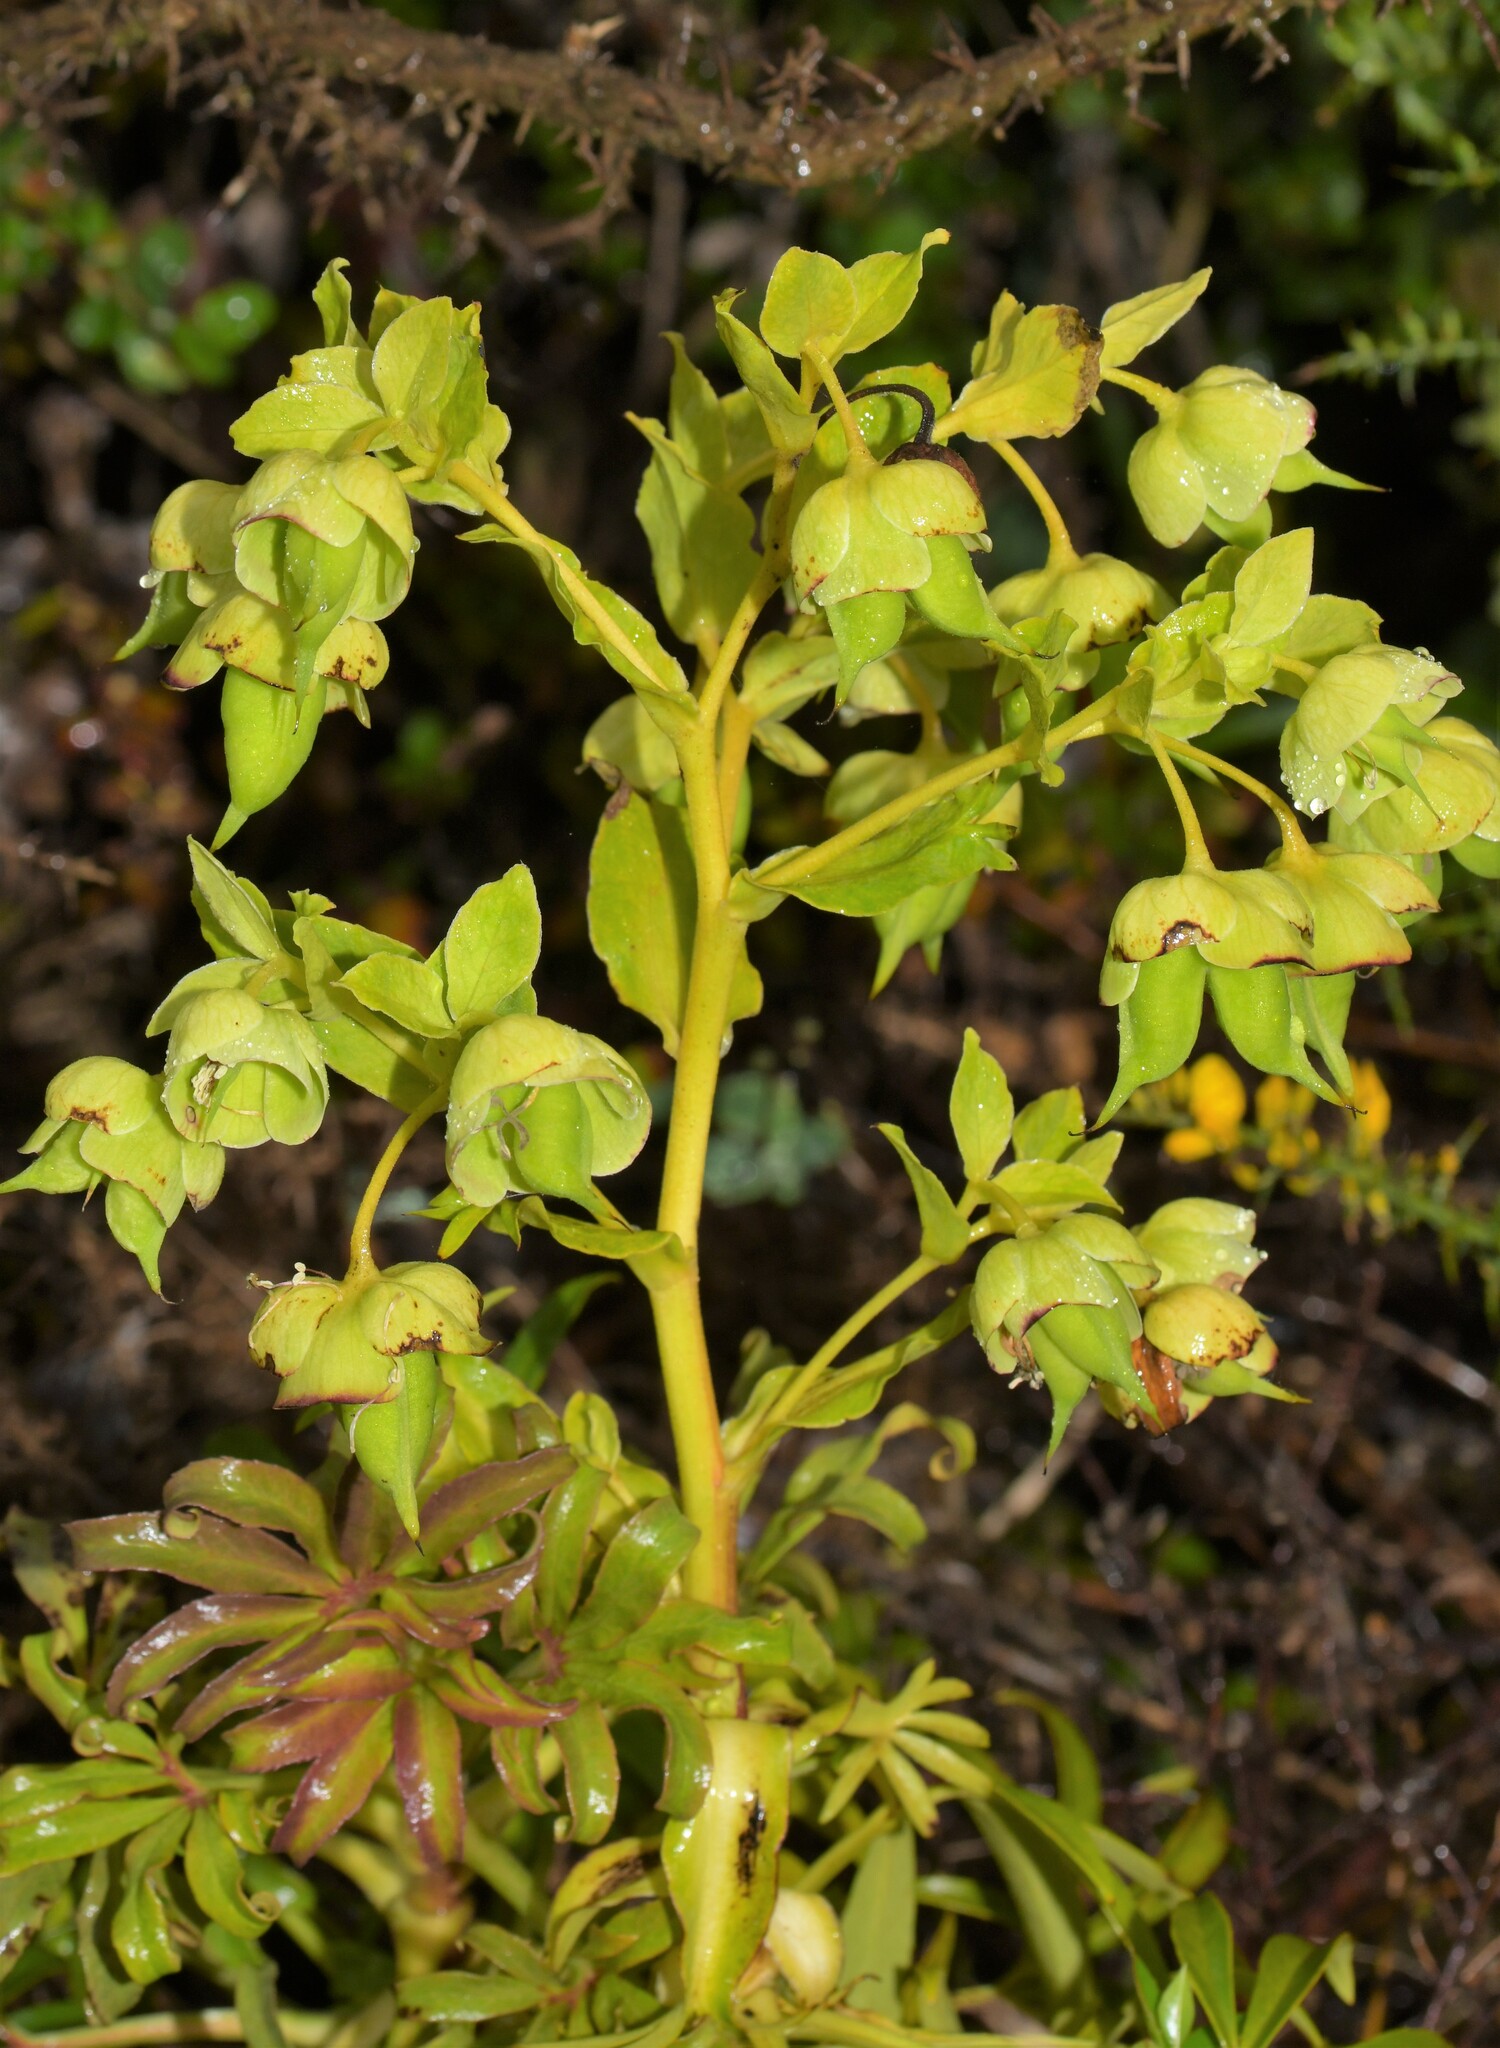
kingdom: Plantae
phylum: Tracheophyta
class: Magnoliopsida
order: Ranunculales
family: Ranunculaceae
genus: Helleborus
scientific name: Helleborus foetidus
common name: Stinking hellebore
